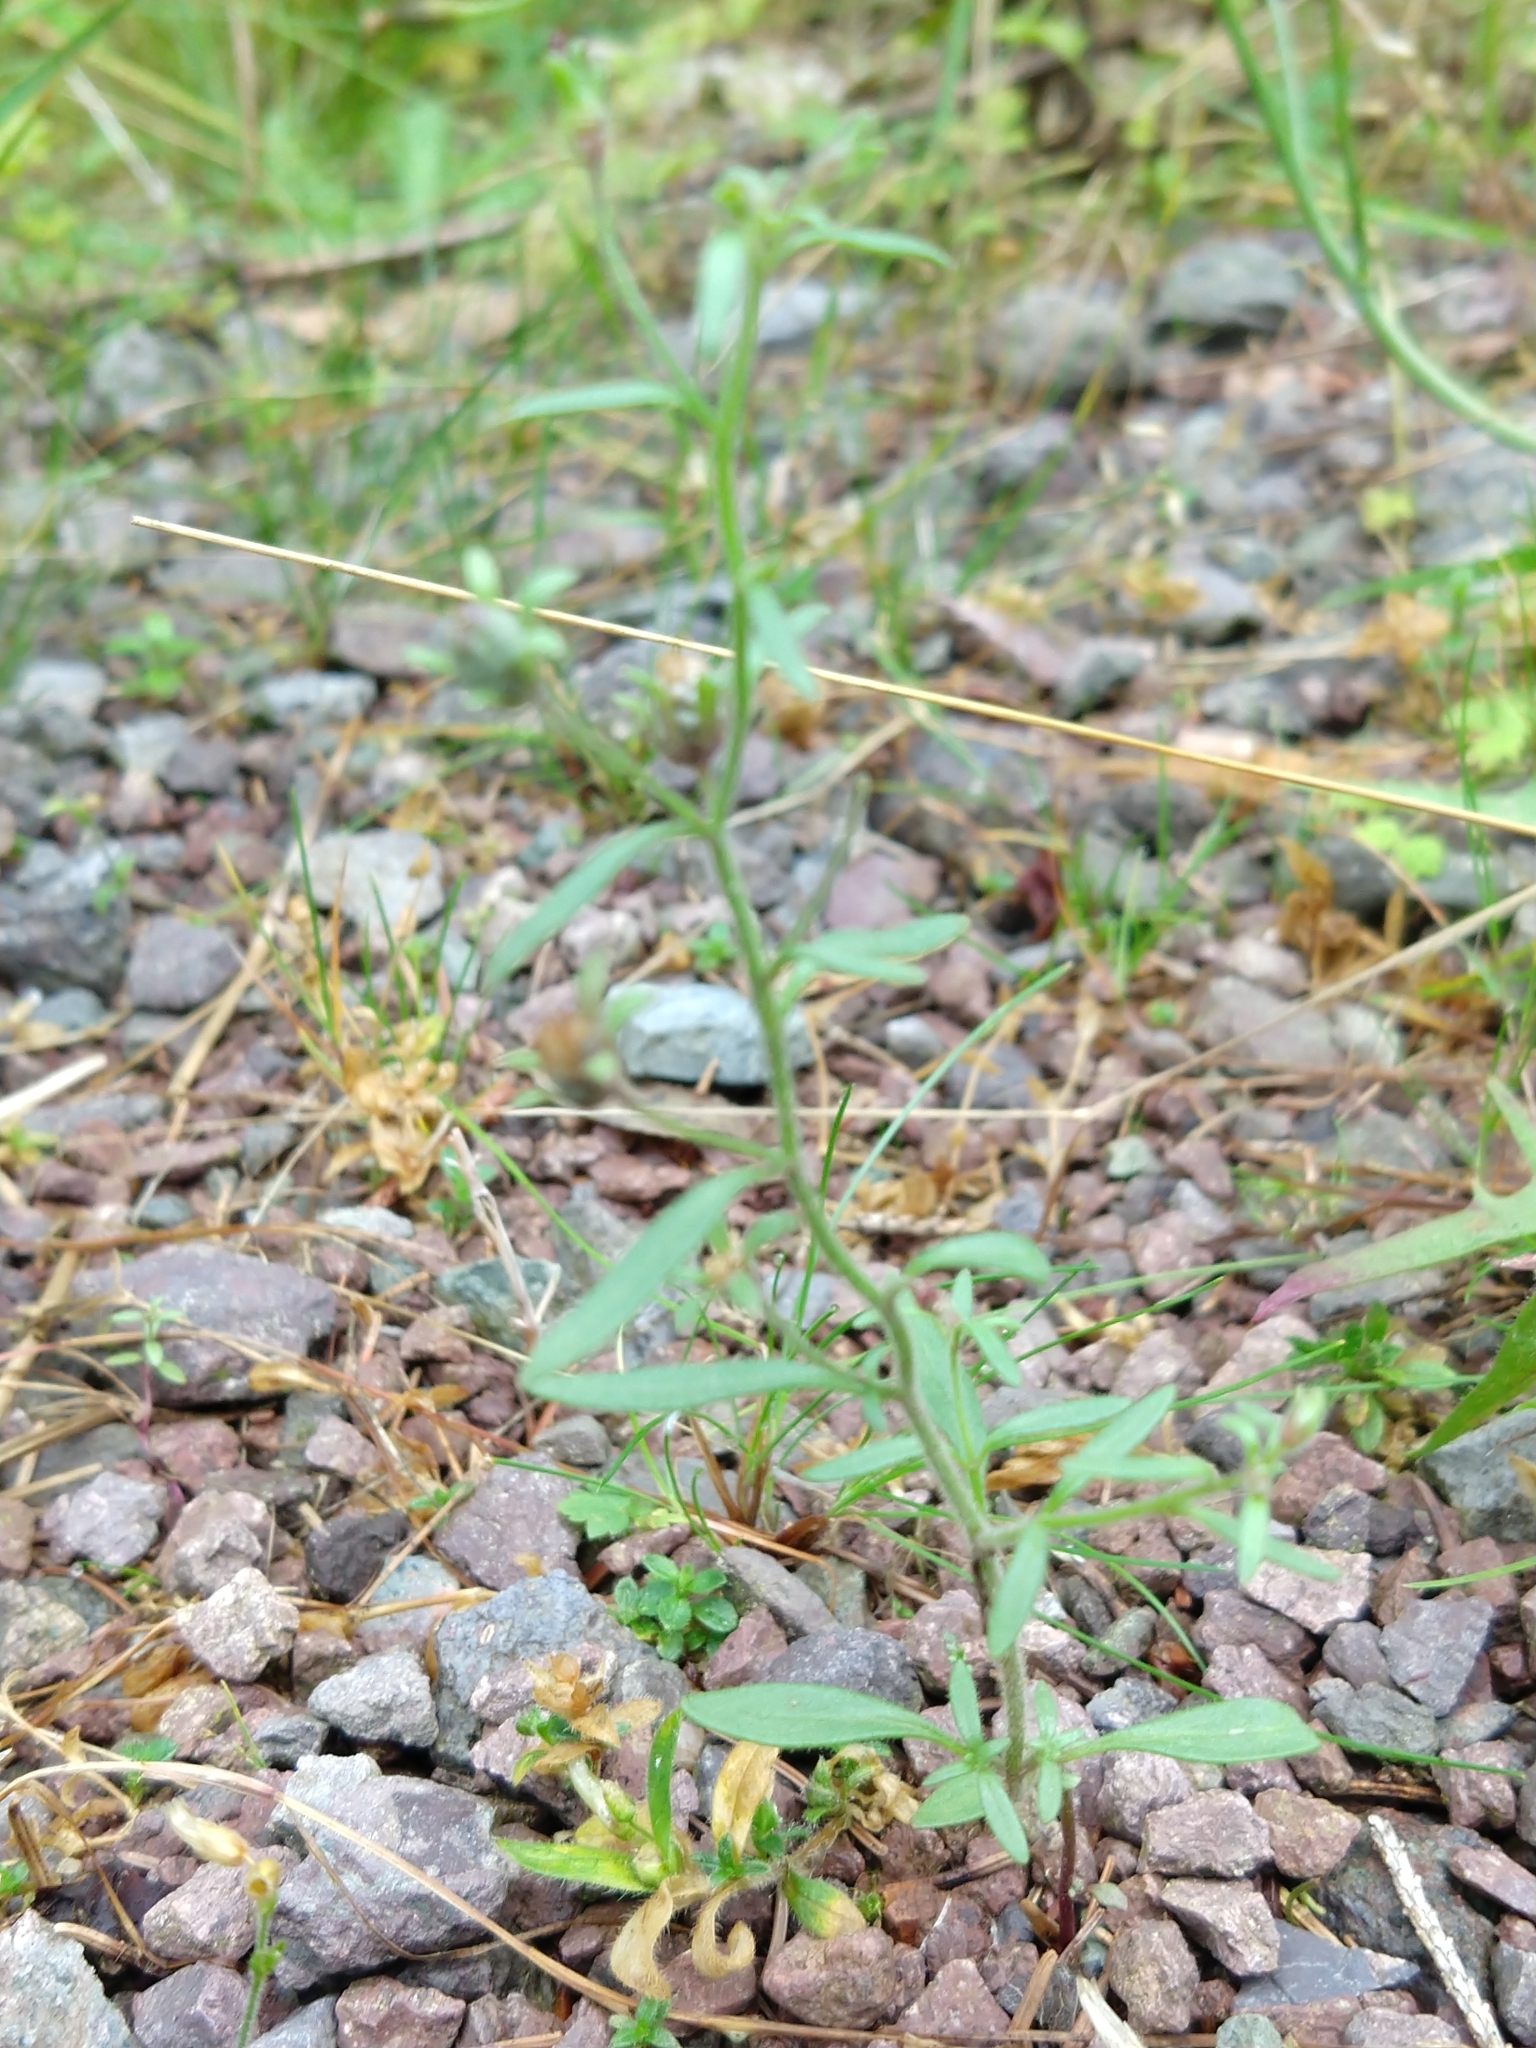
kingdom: Plantae
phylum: Tracheophyta
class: Magnoliopsida
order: Lamiales
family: Plantaginaceae
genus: Chaenorhinum
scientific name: Chaenorhinum minus
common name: Dwarf snapdragon
